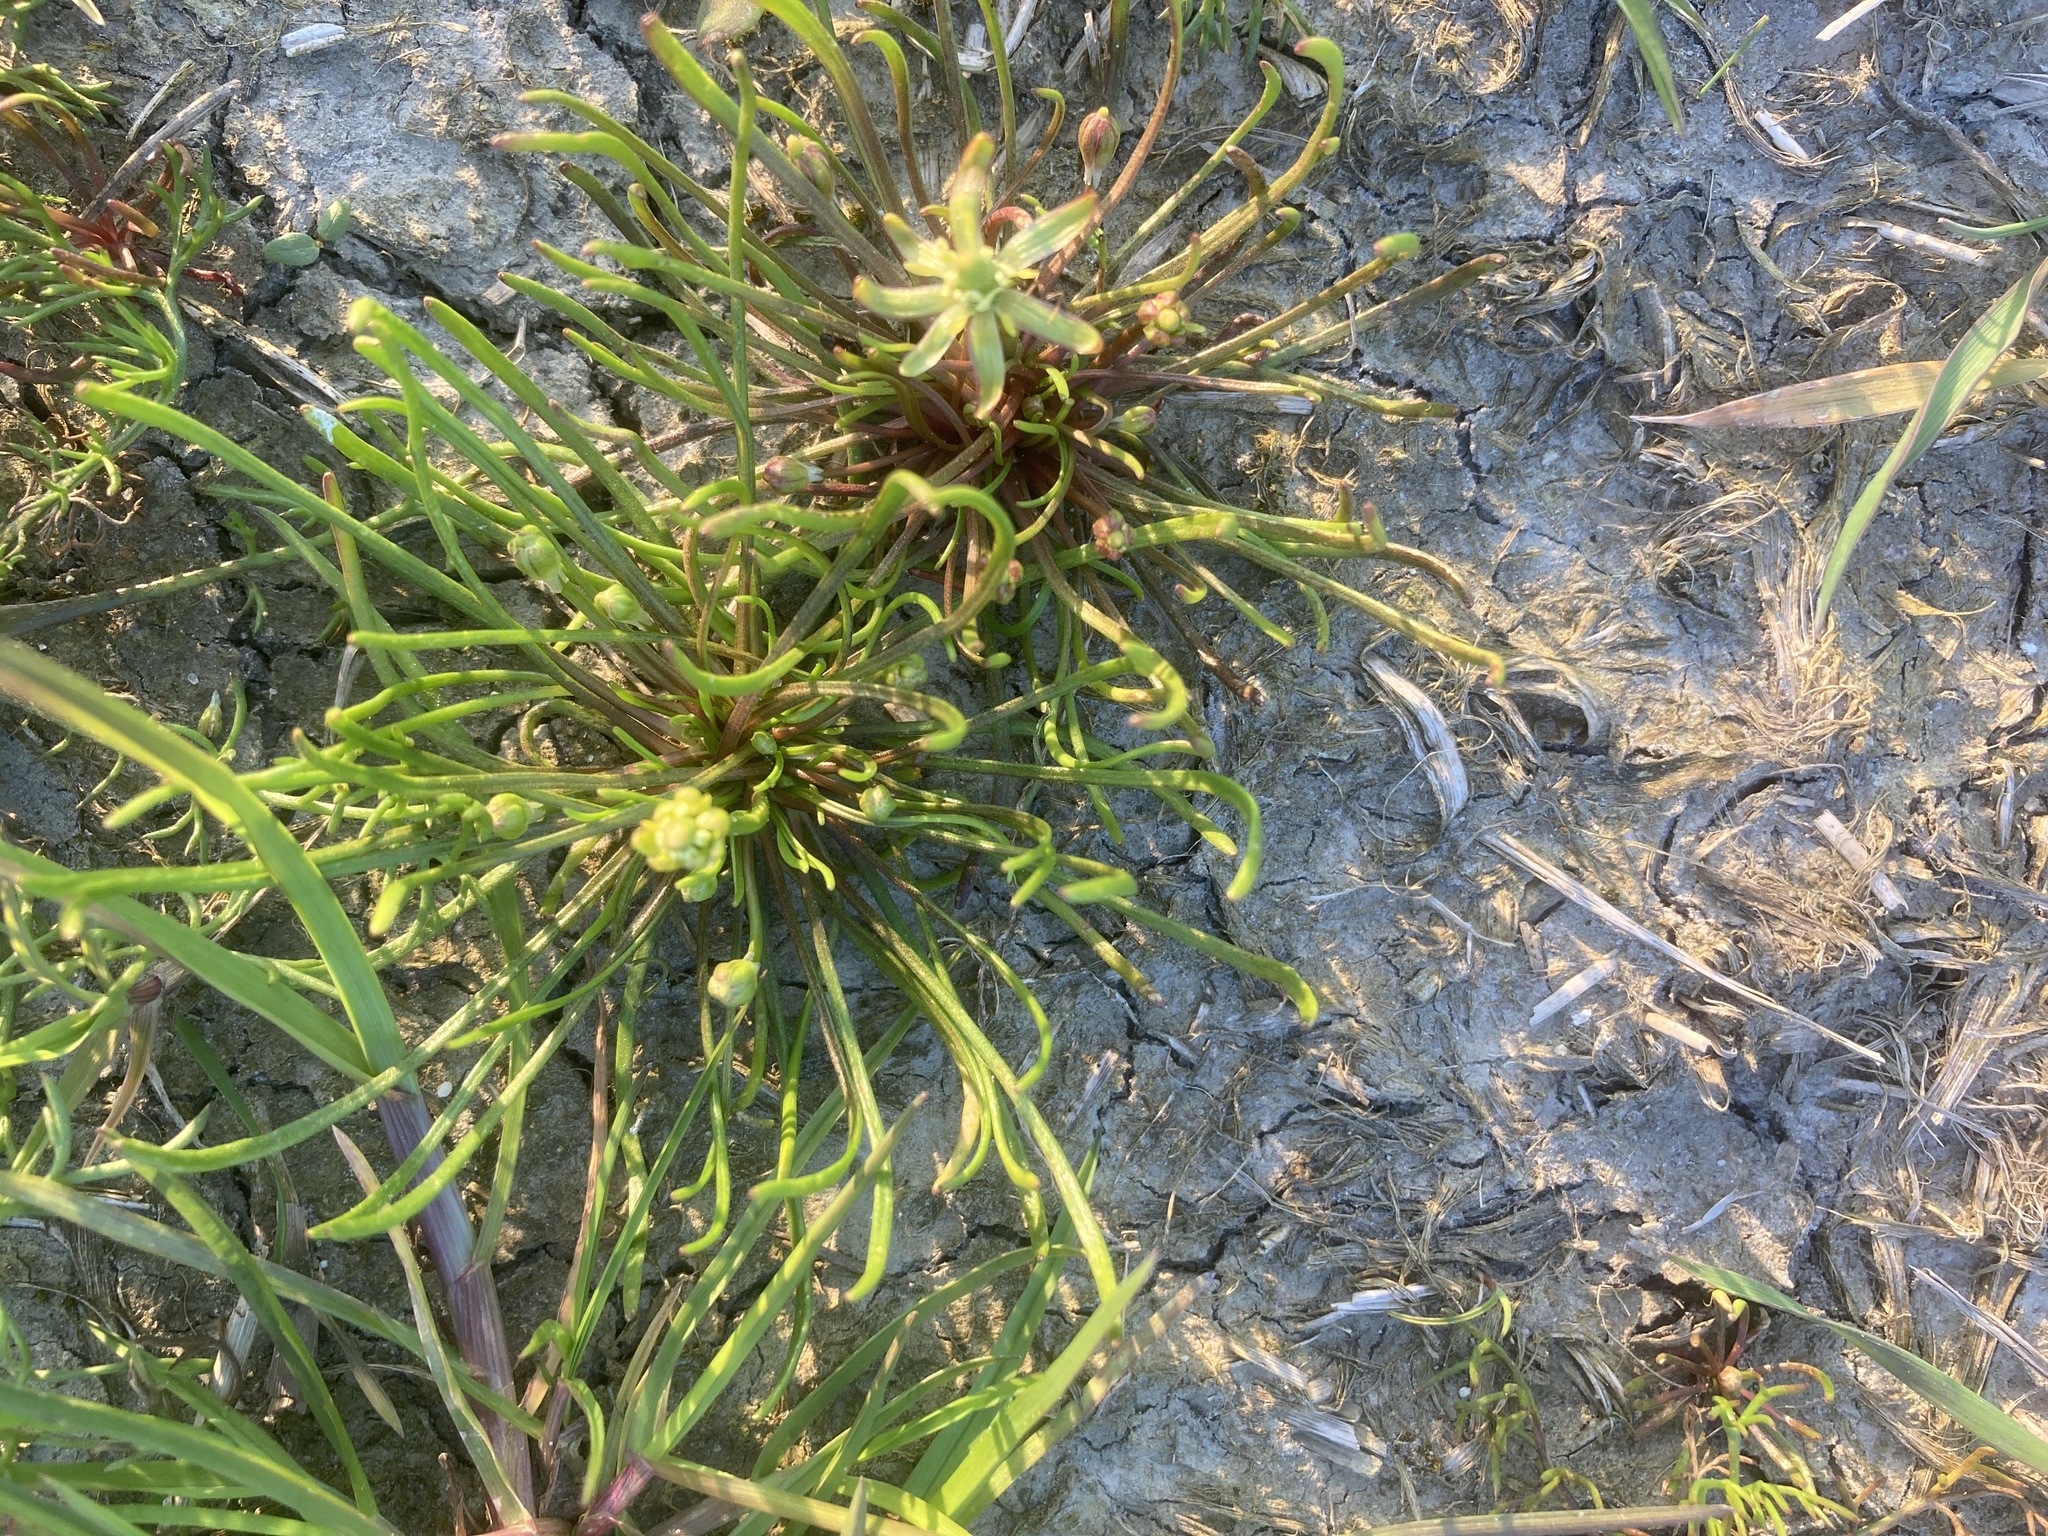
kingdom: Plantae
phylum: Tracheophyta
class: Magnoliopsida
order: Ranunculales
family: Ranunculaceae
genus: Myosurus
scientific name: Myosurus minimus
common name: Mousetail
